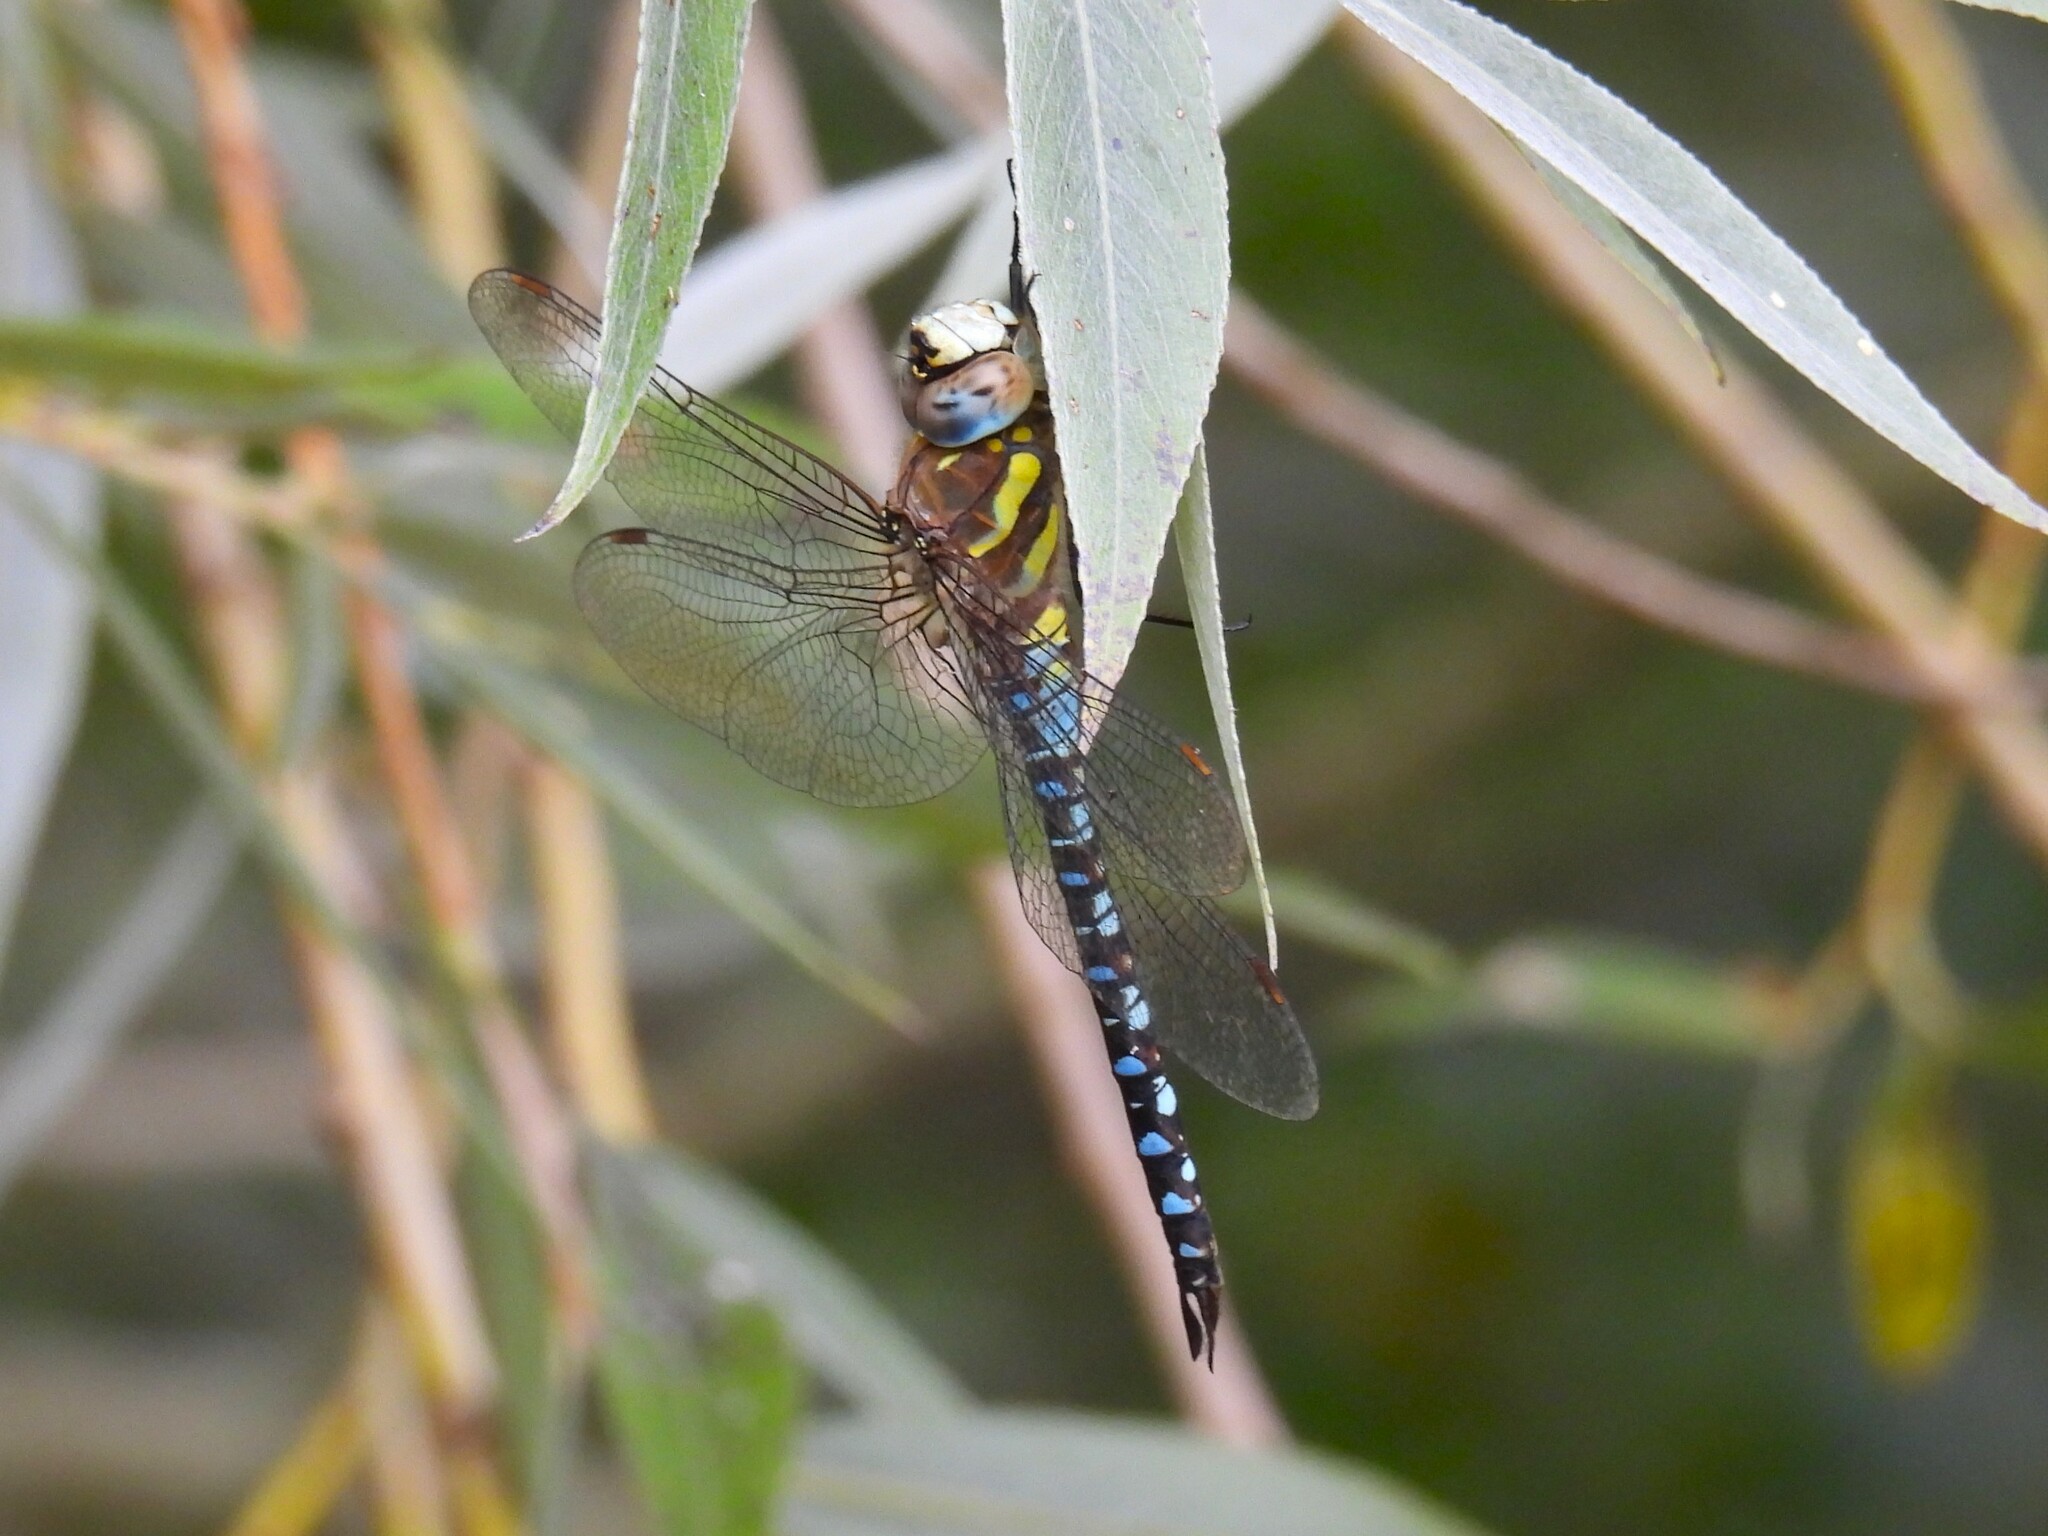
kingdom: Animalia
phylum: Arthropoda
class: Insecta
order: Odonata
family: Aeshnidae
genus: Aeshna
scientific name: Aeshna mixta
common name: Migrant hawker
